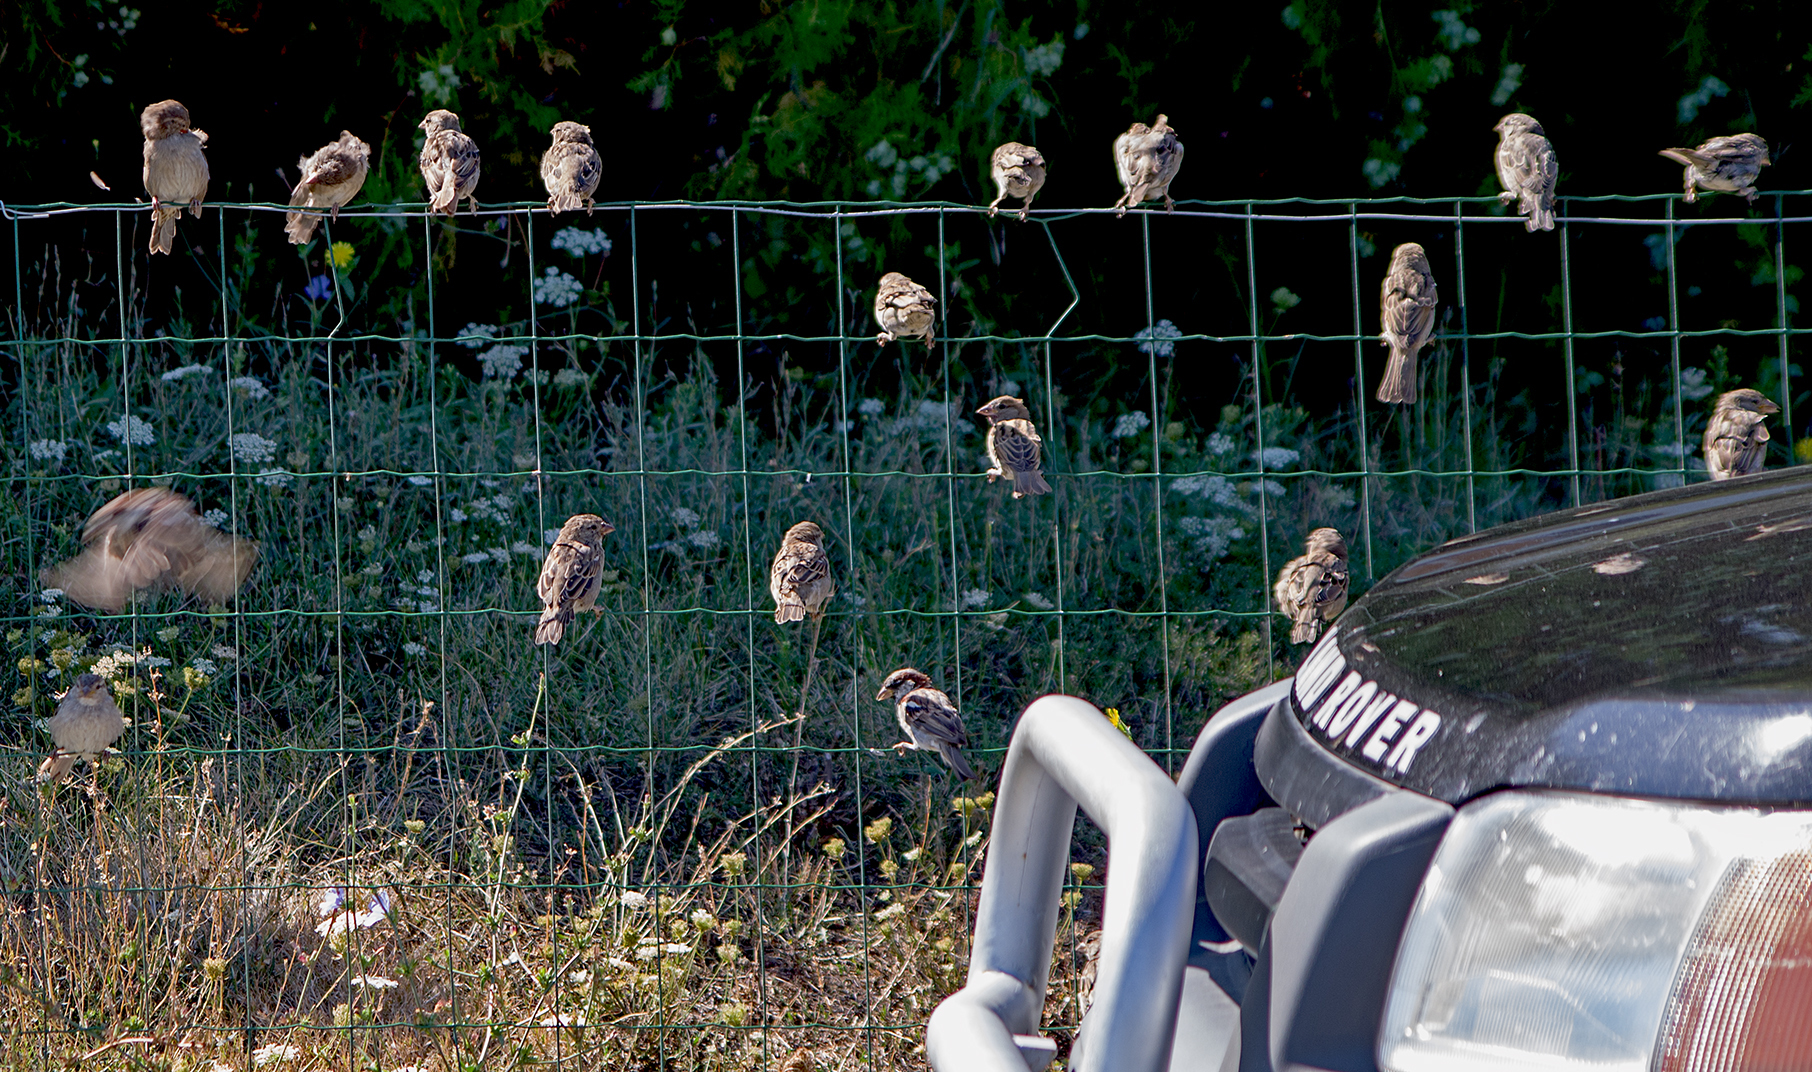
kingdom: Animalia
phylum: Chordata
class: Aves
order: Passeriformes
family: Passeridae
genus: Passer
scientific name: Passer hispaniolensis
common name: Spanish sparrow
